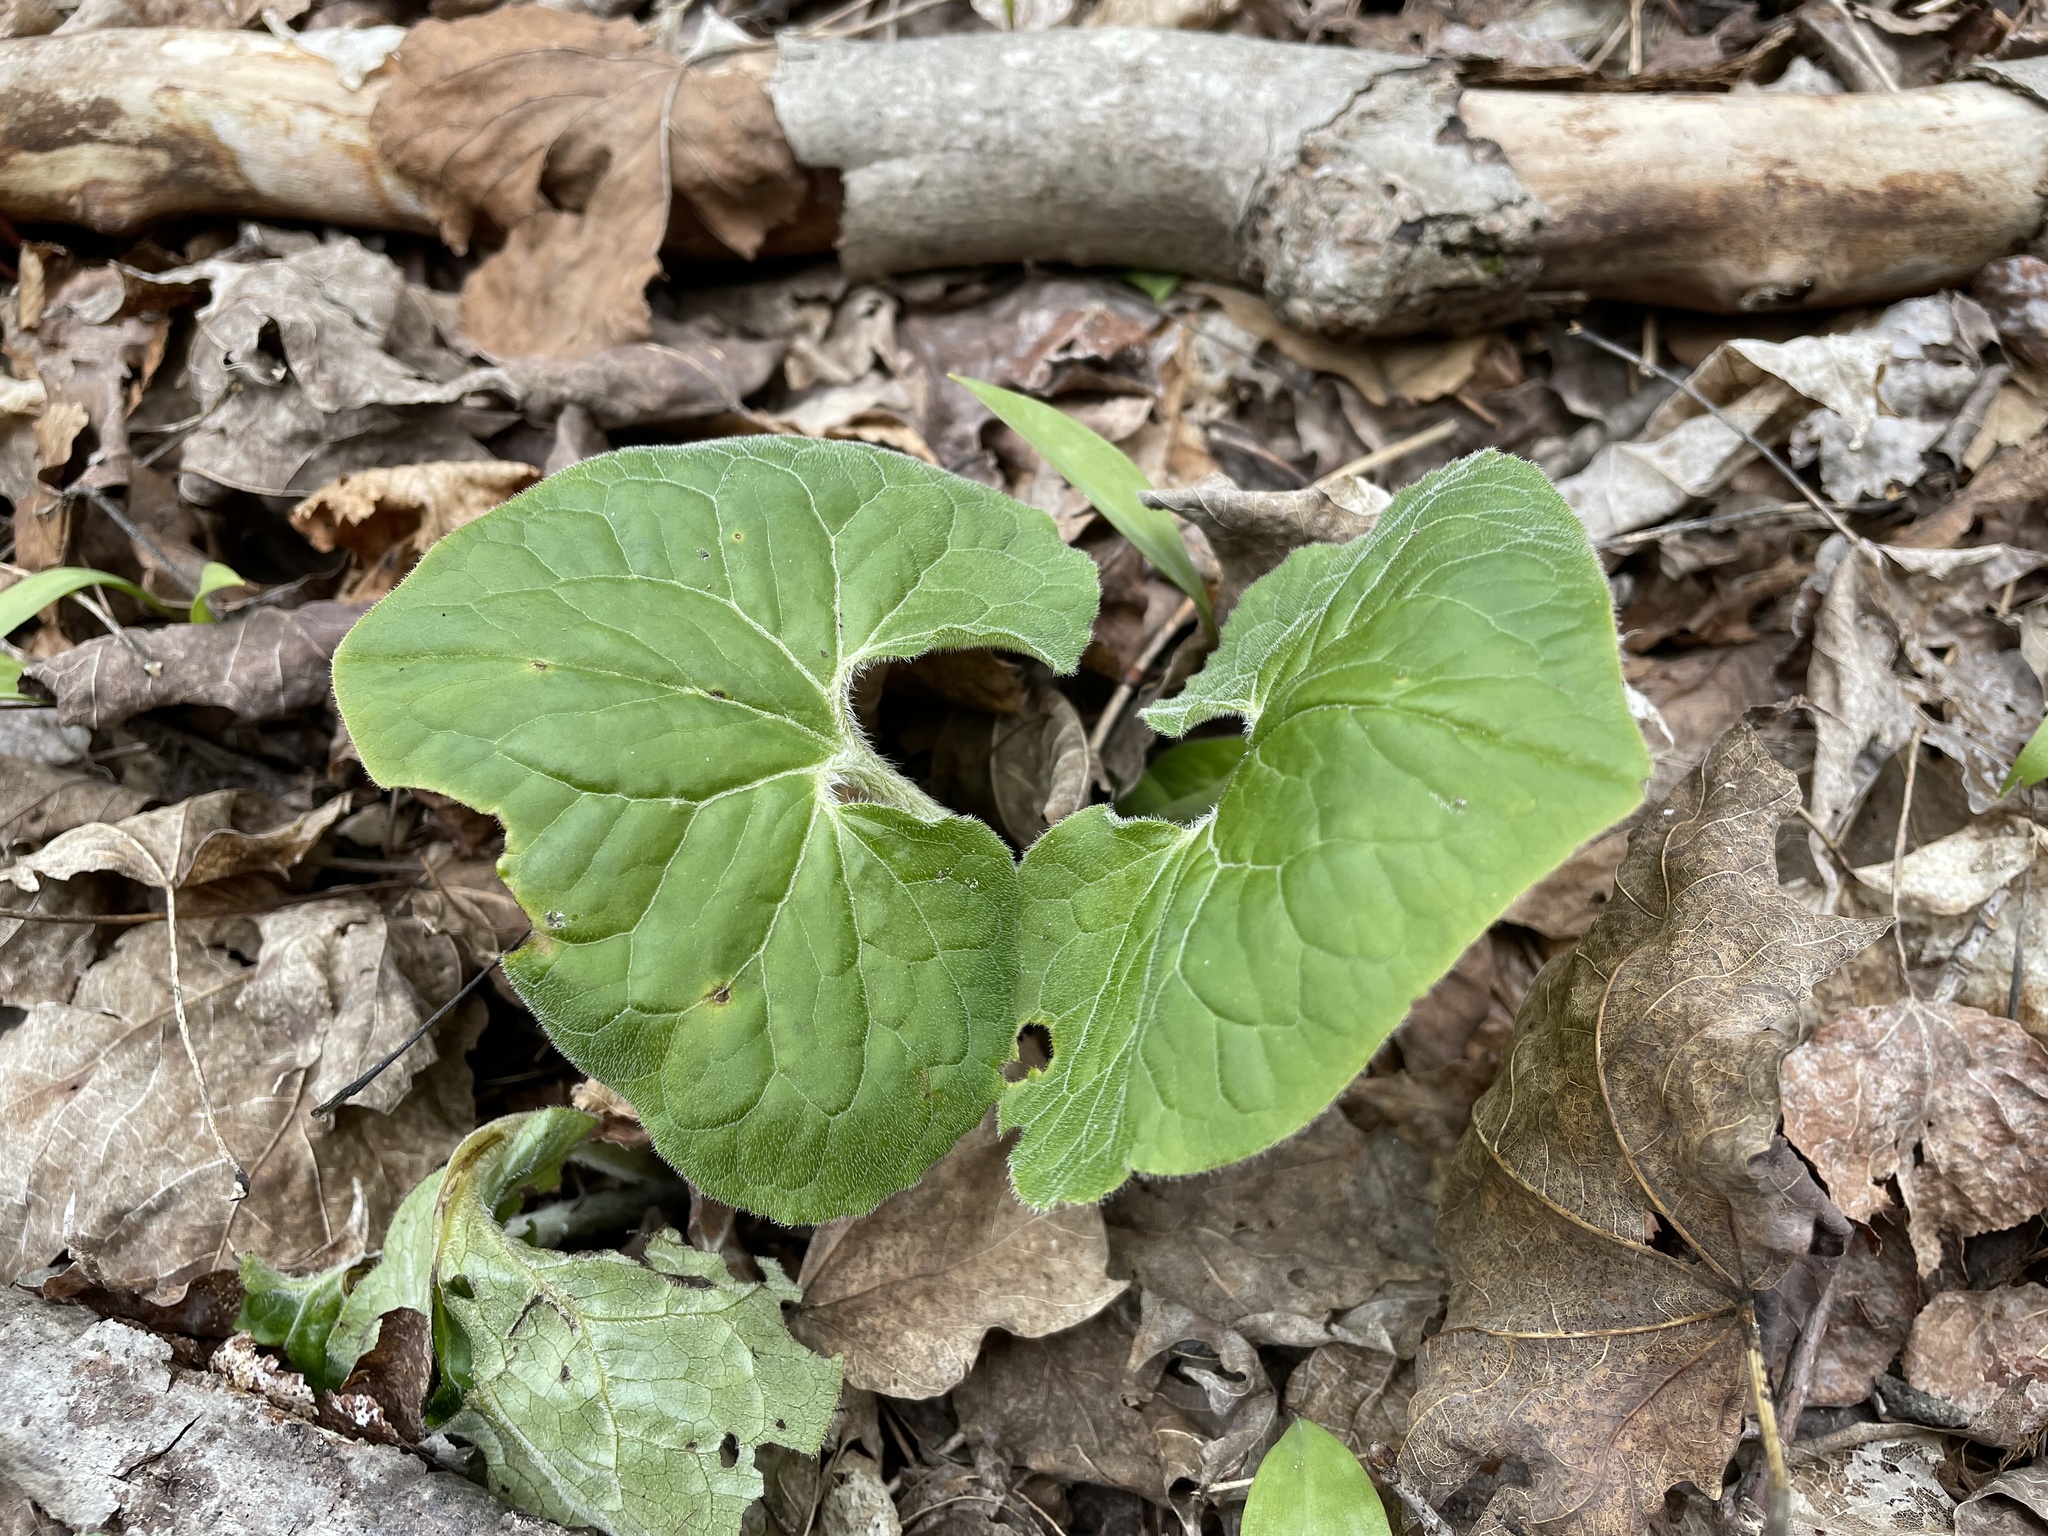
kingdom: Plantae
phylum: Tracheophyta
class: Magnoliopsida
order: Piperales
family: Aristolochiaceae
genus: Asarum
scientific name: Asarum canadense
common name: Wild ginger
